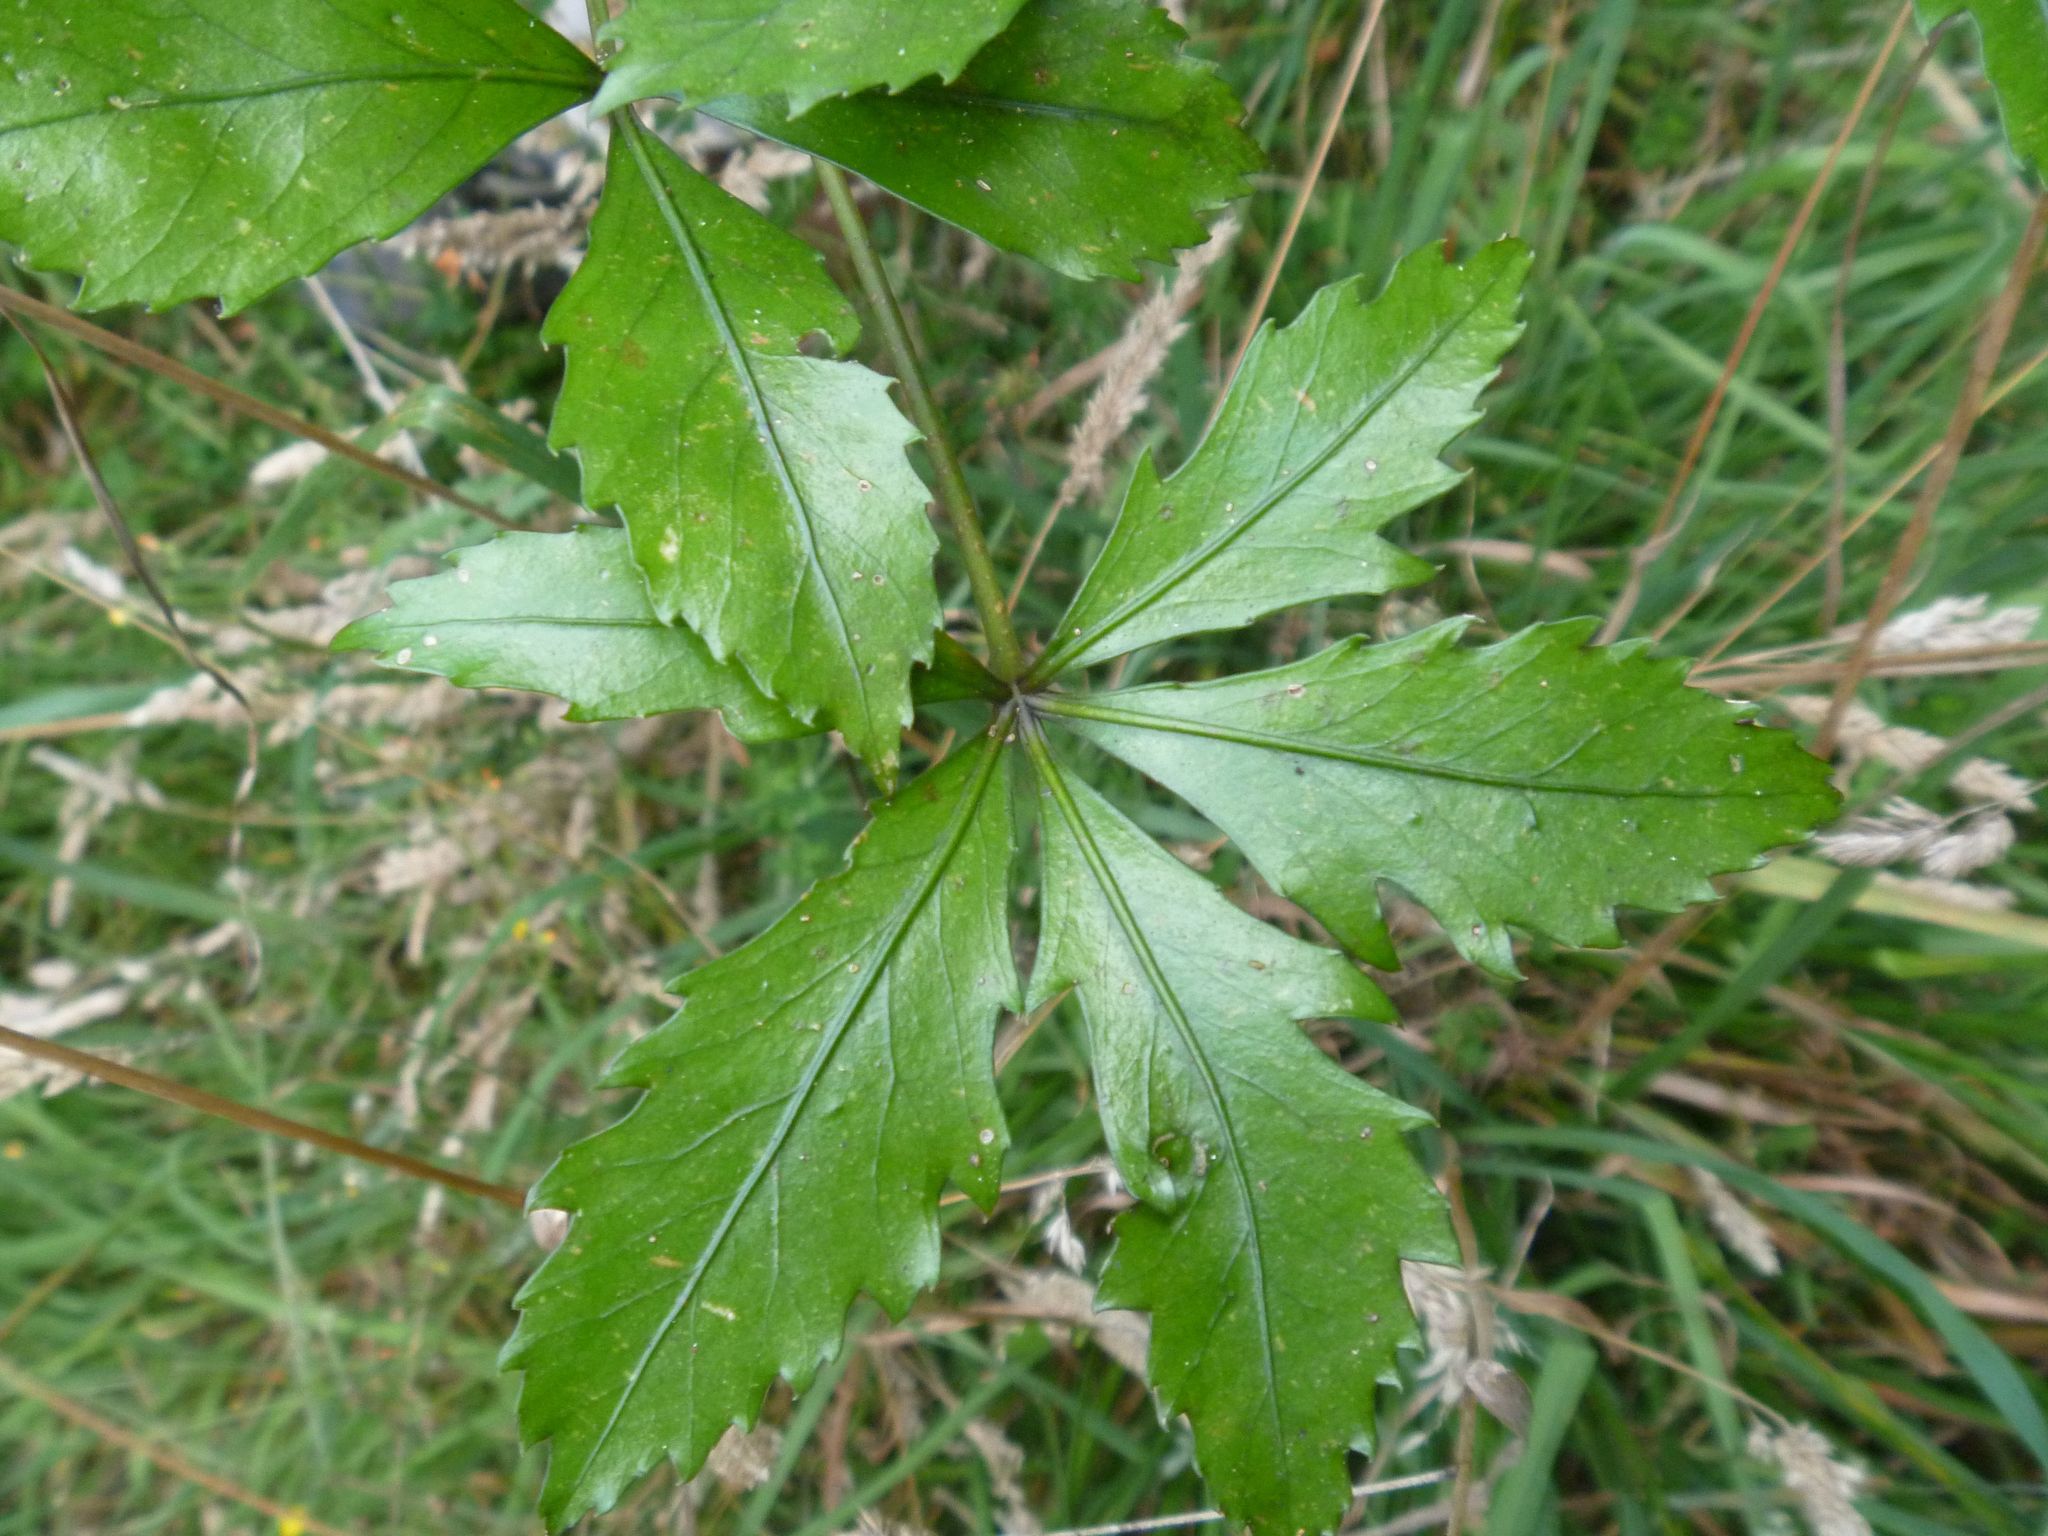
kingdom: Plantae
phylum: Tracheophyta
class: Magnoliopsida
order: Apiales
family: Araliaceae
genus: Pseudopanax
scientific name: Pseudopanax discolor
